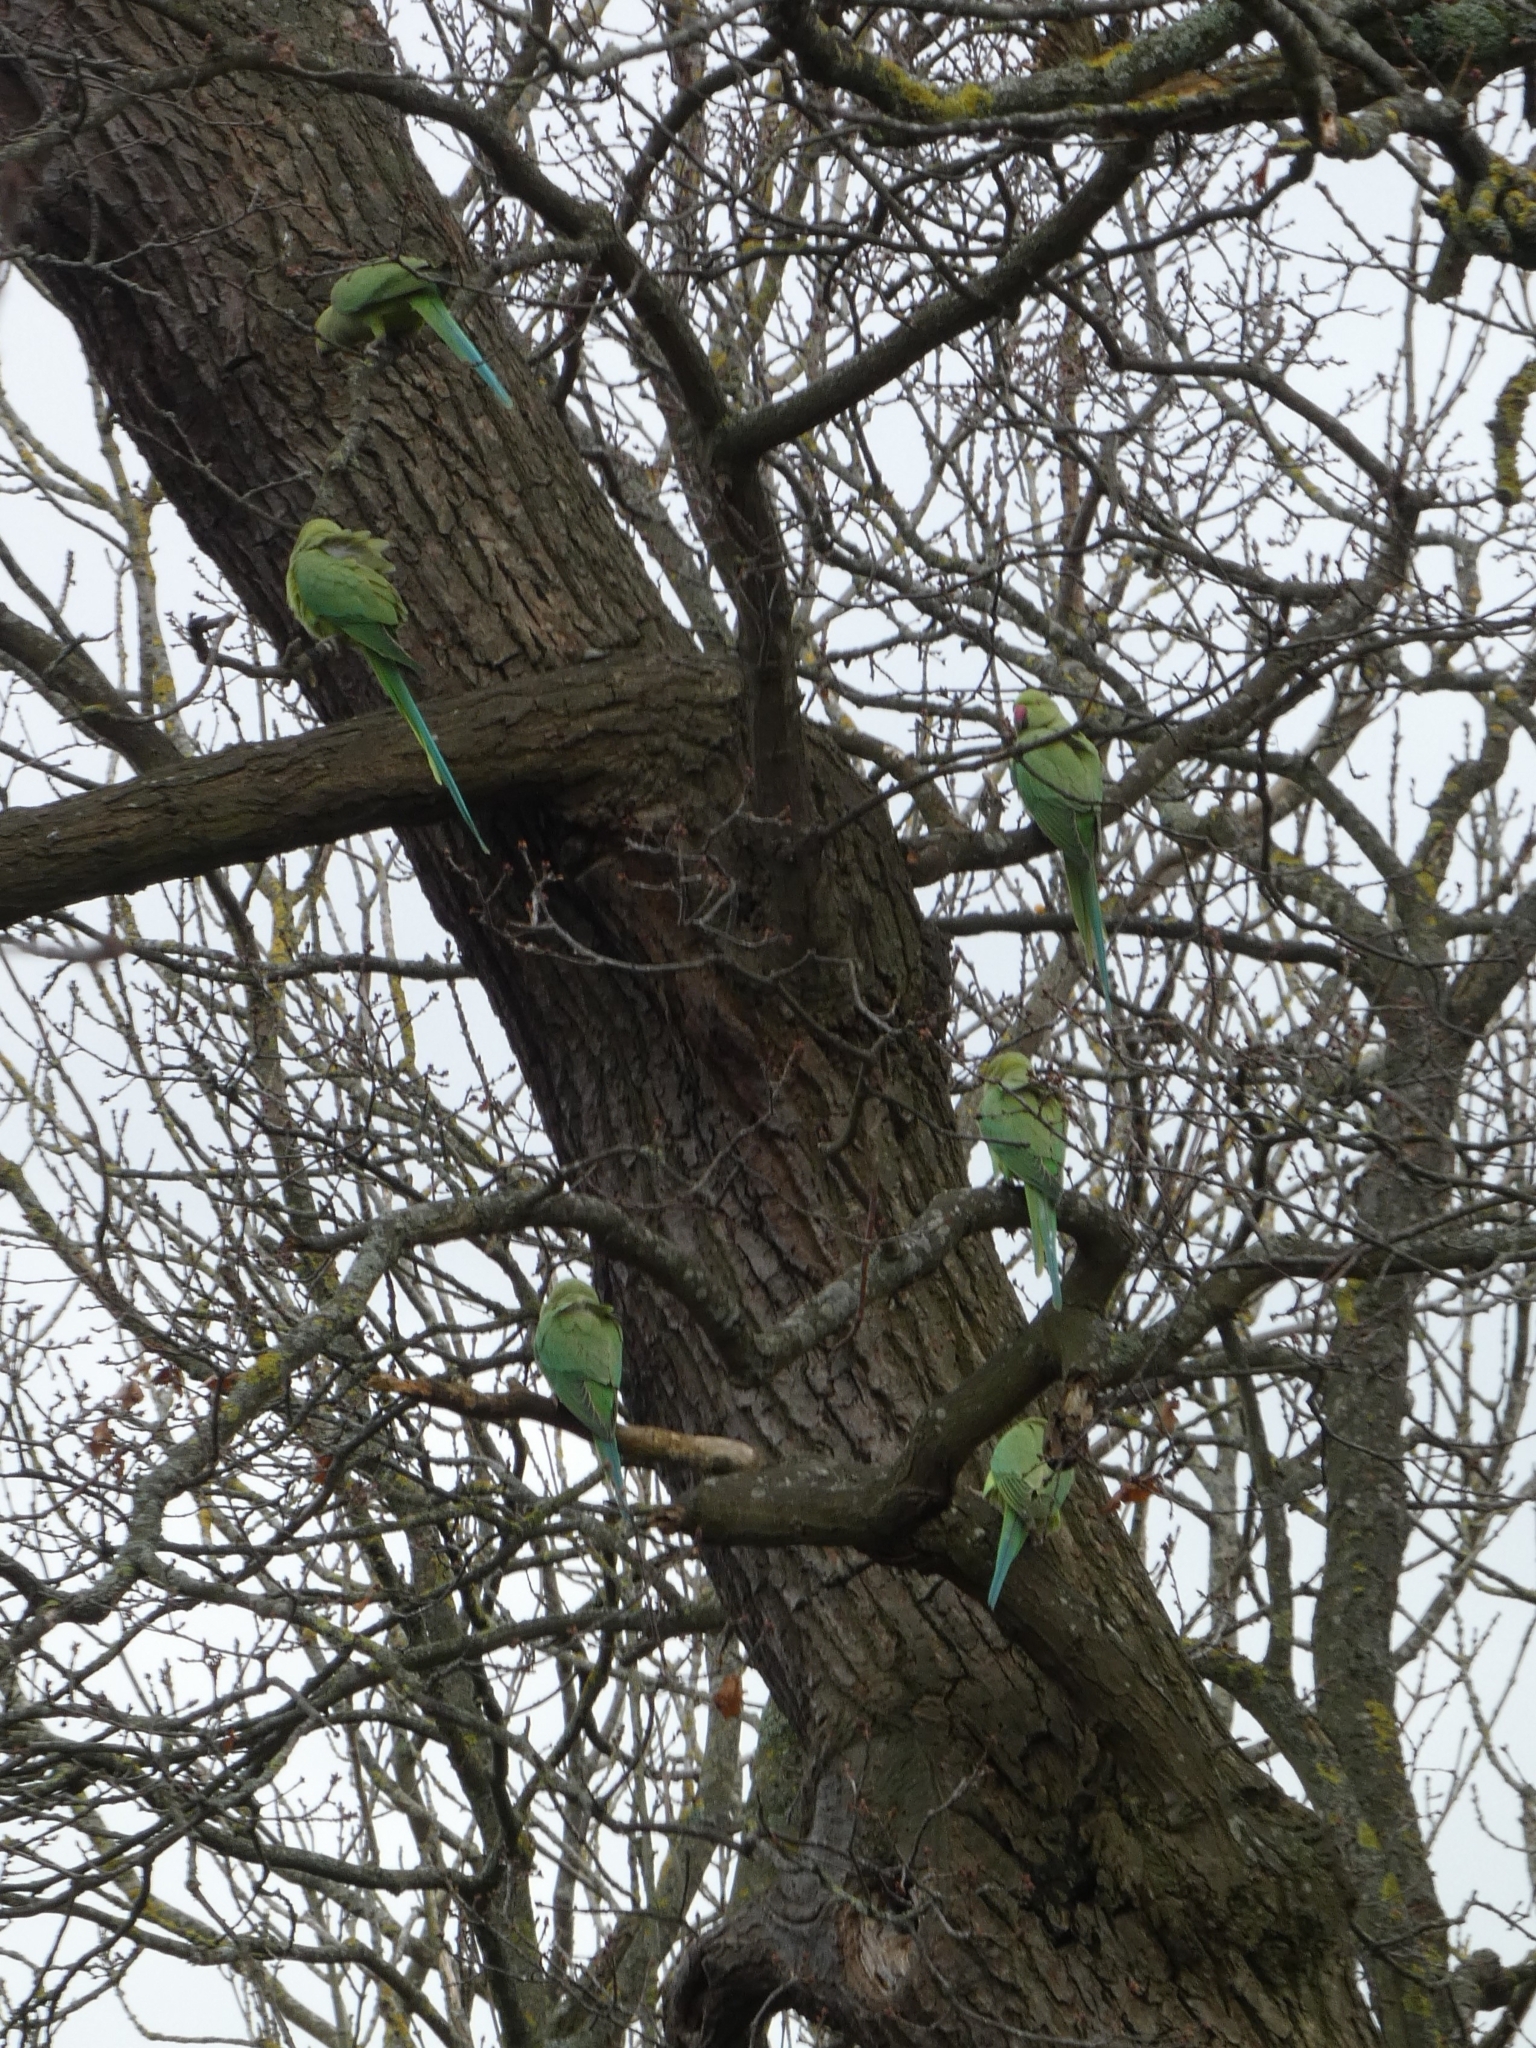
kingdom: Animalia
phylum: Chordata
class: Aves
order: Psittaciformes
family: Psittacidae
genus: Psittacula
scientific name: Psittacula krameri
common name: Rose-ringed parakeet
